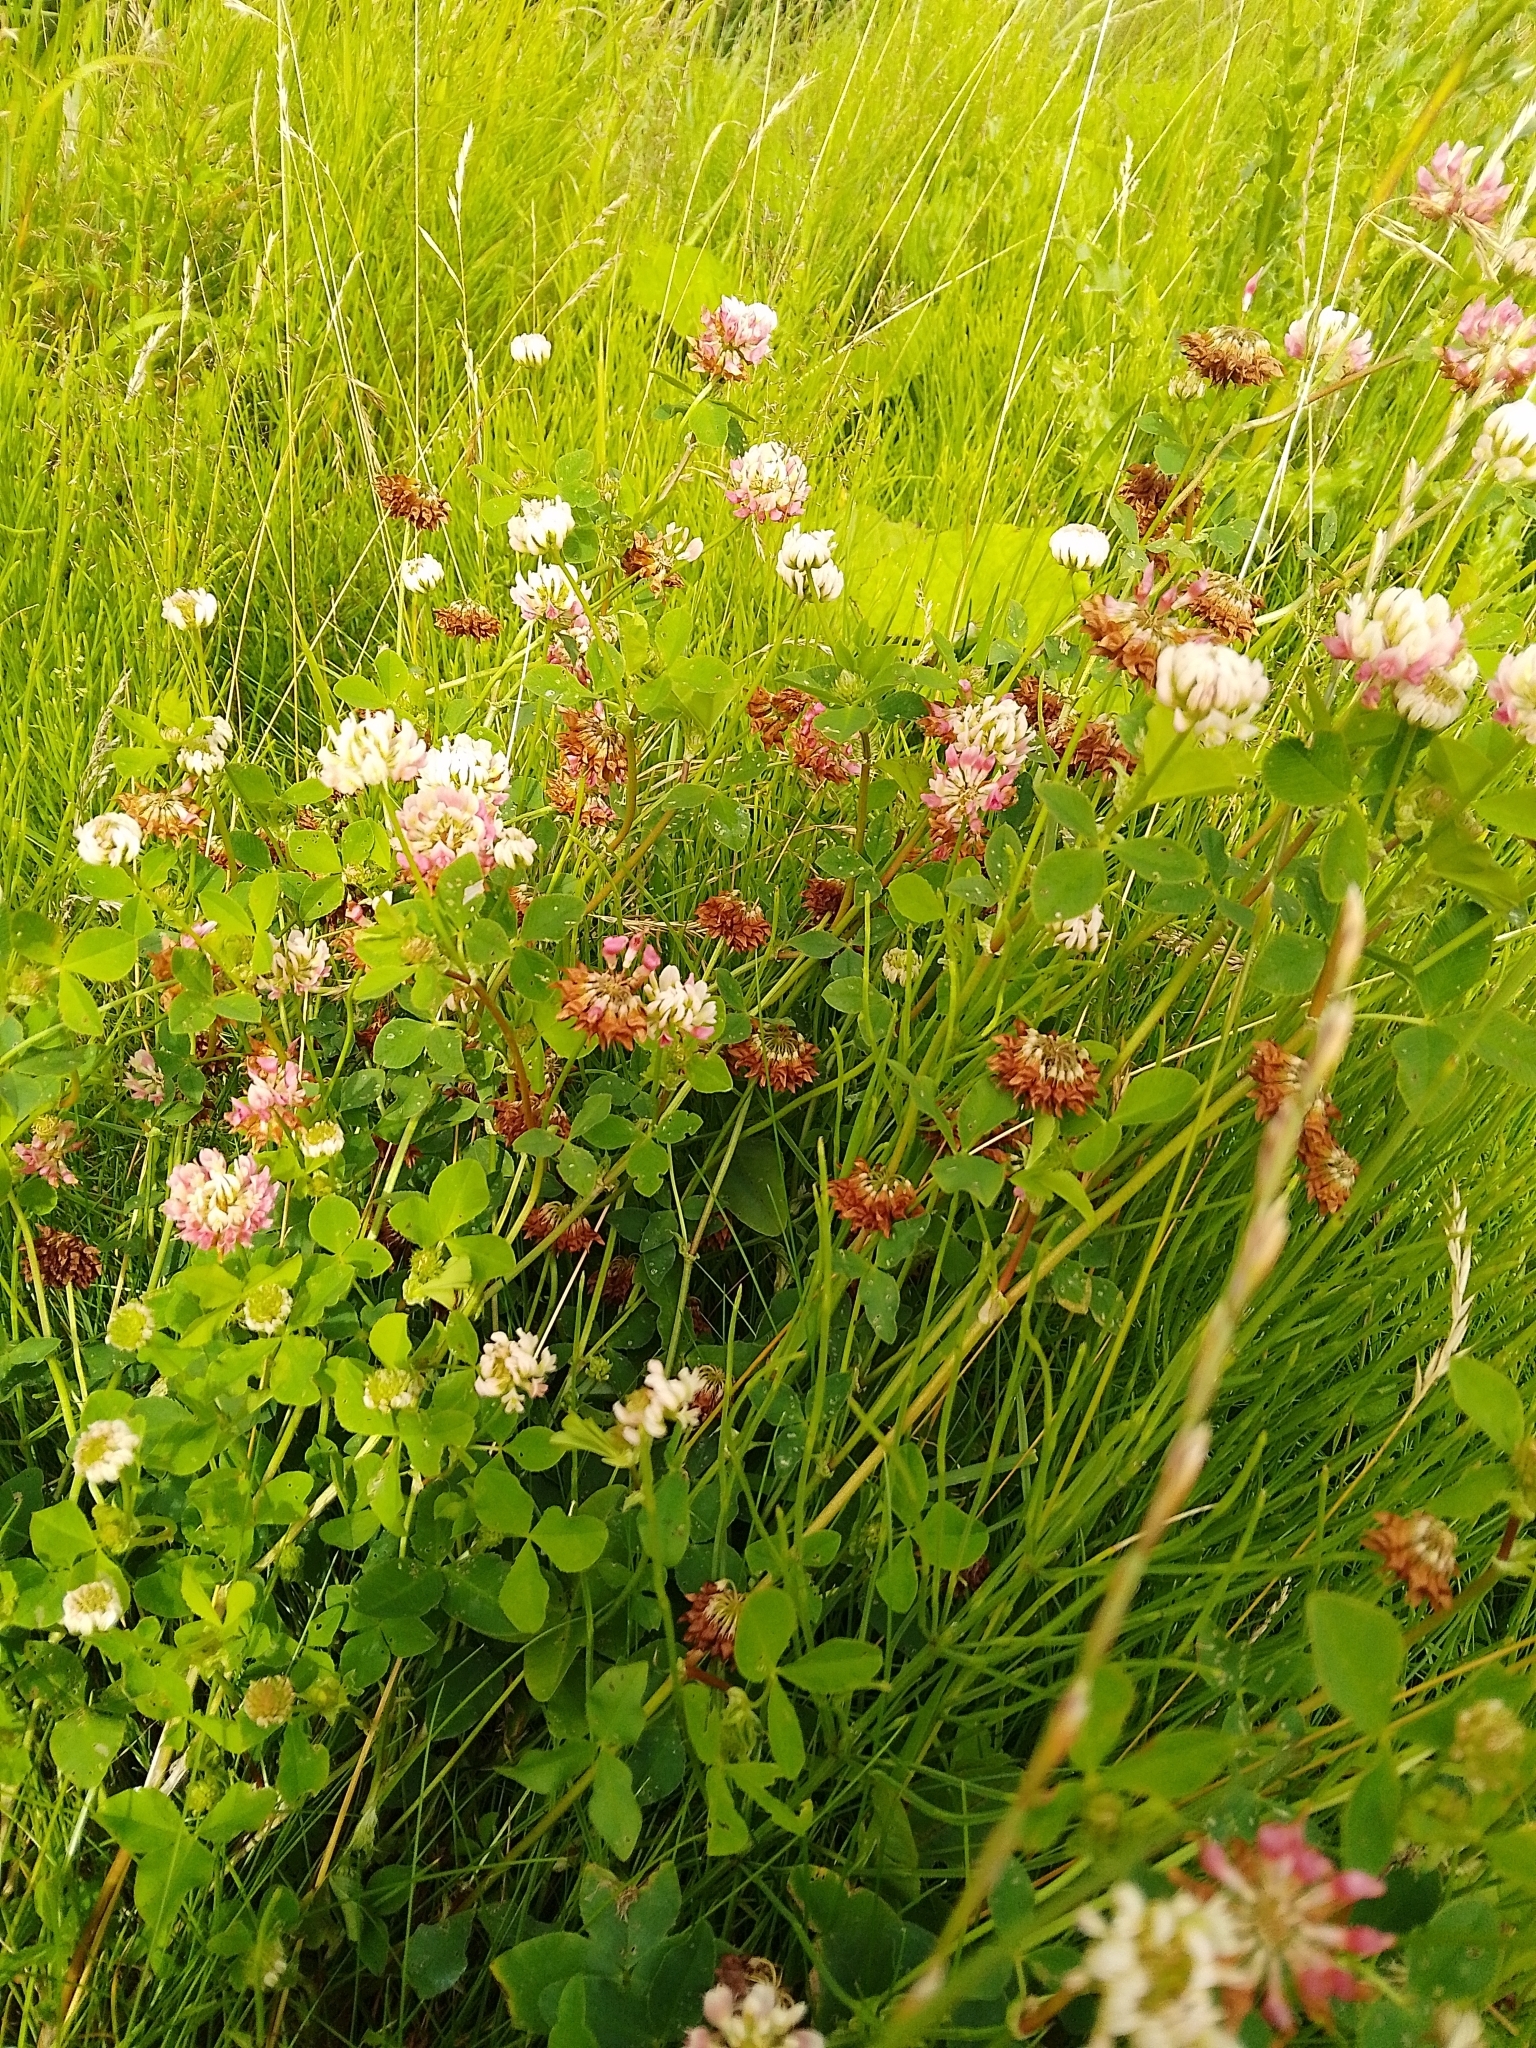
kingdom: Plantae
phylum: Tracheophyta
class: Magnoliopsida
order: Fabales
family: Fabaceae
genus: Trifolium
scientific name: Trifolium hybridum
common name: Alsike clover
